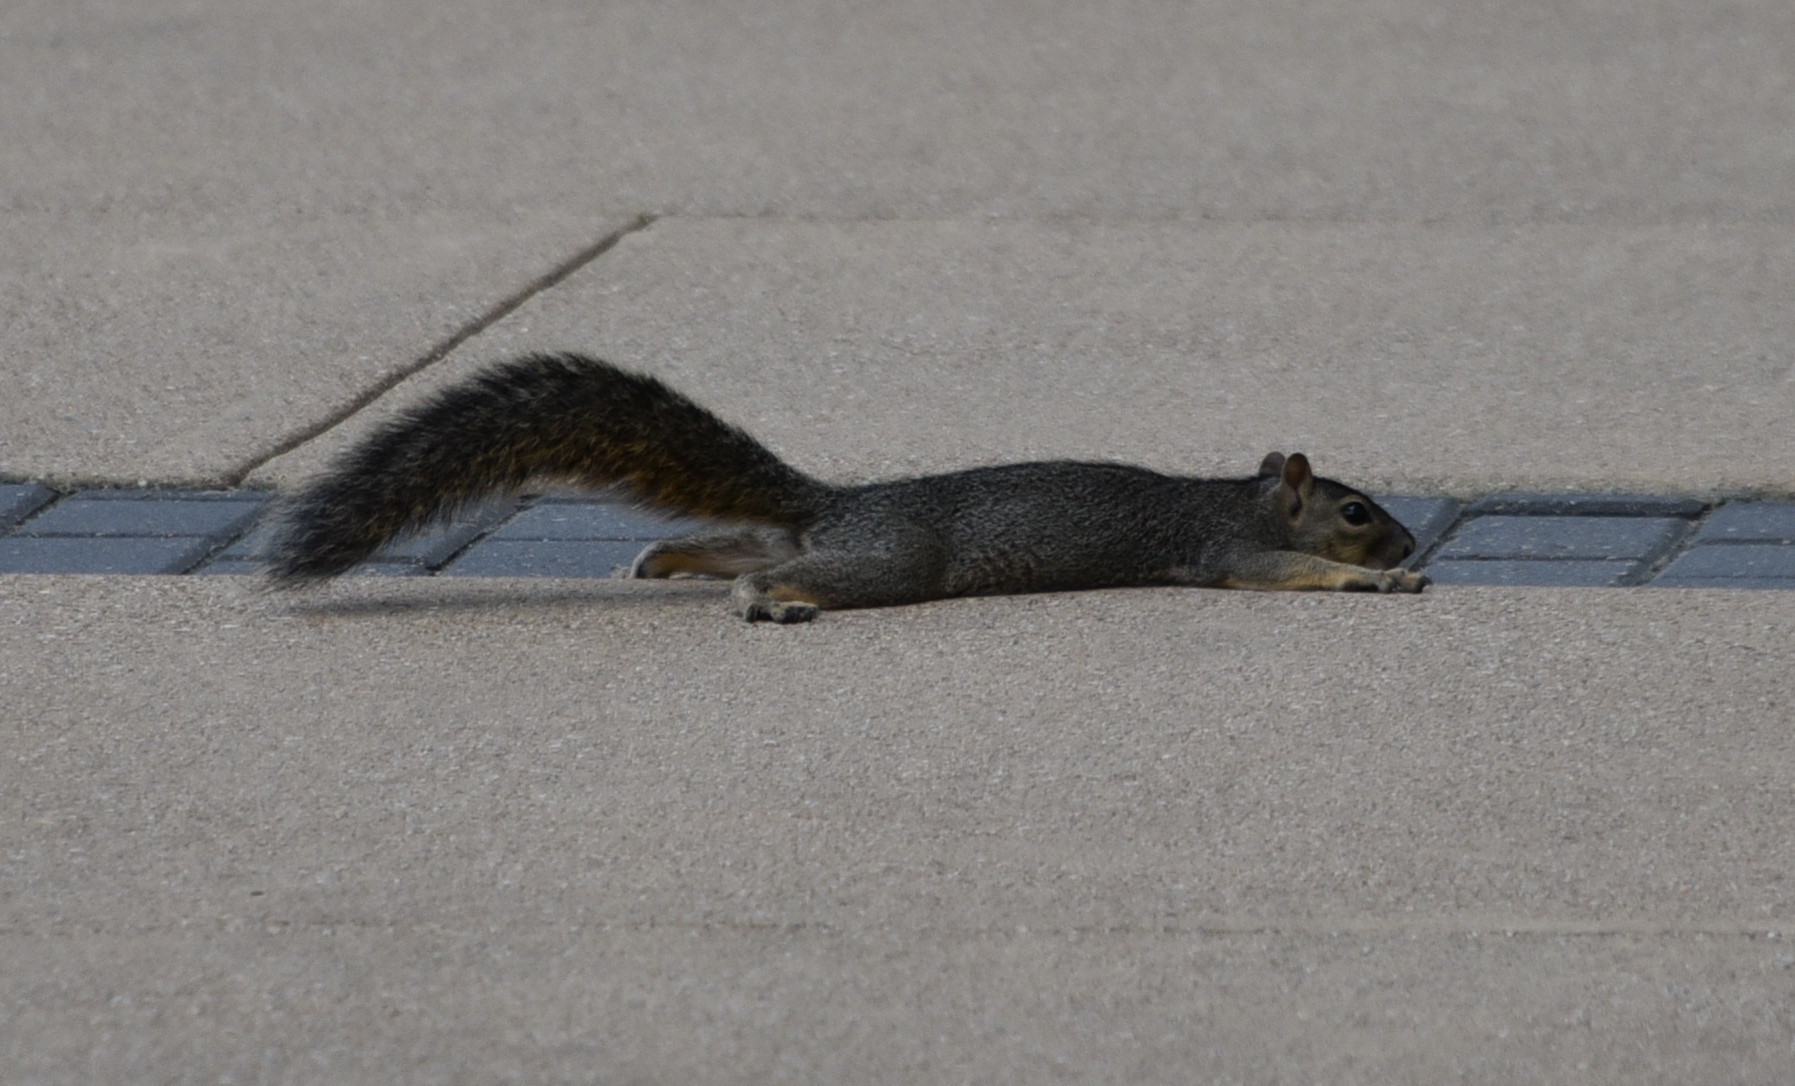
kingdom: Animalia
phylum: Chordata
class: Mammalia
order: Rodentia
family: Sciuridae
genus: Sciurus
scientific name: Sciurus niger
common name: Fox squirrel
